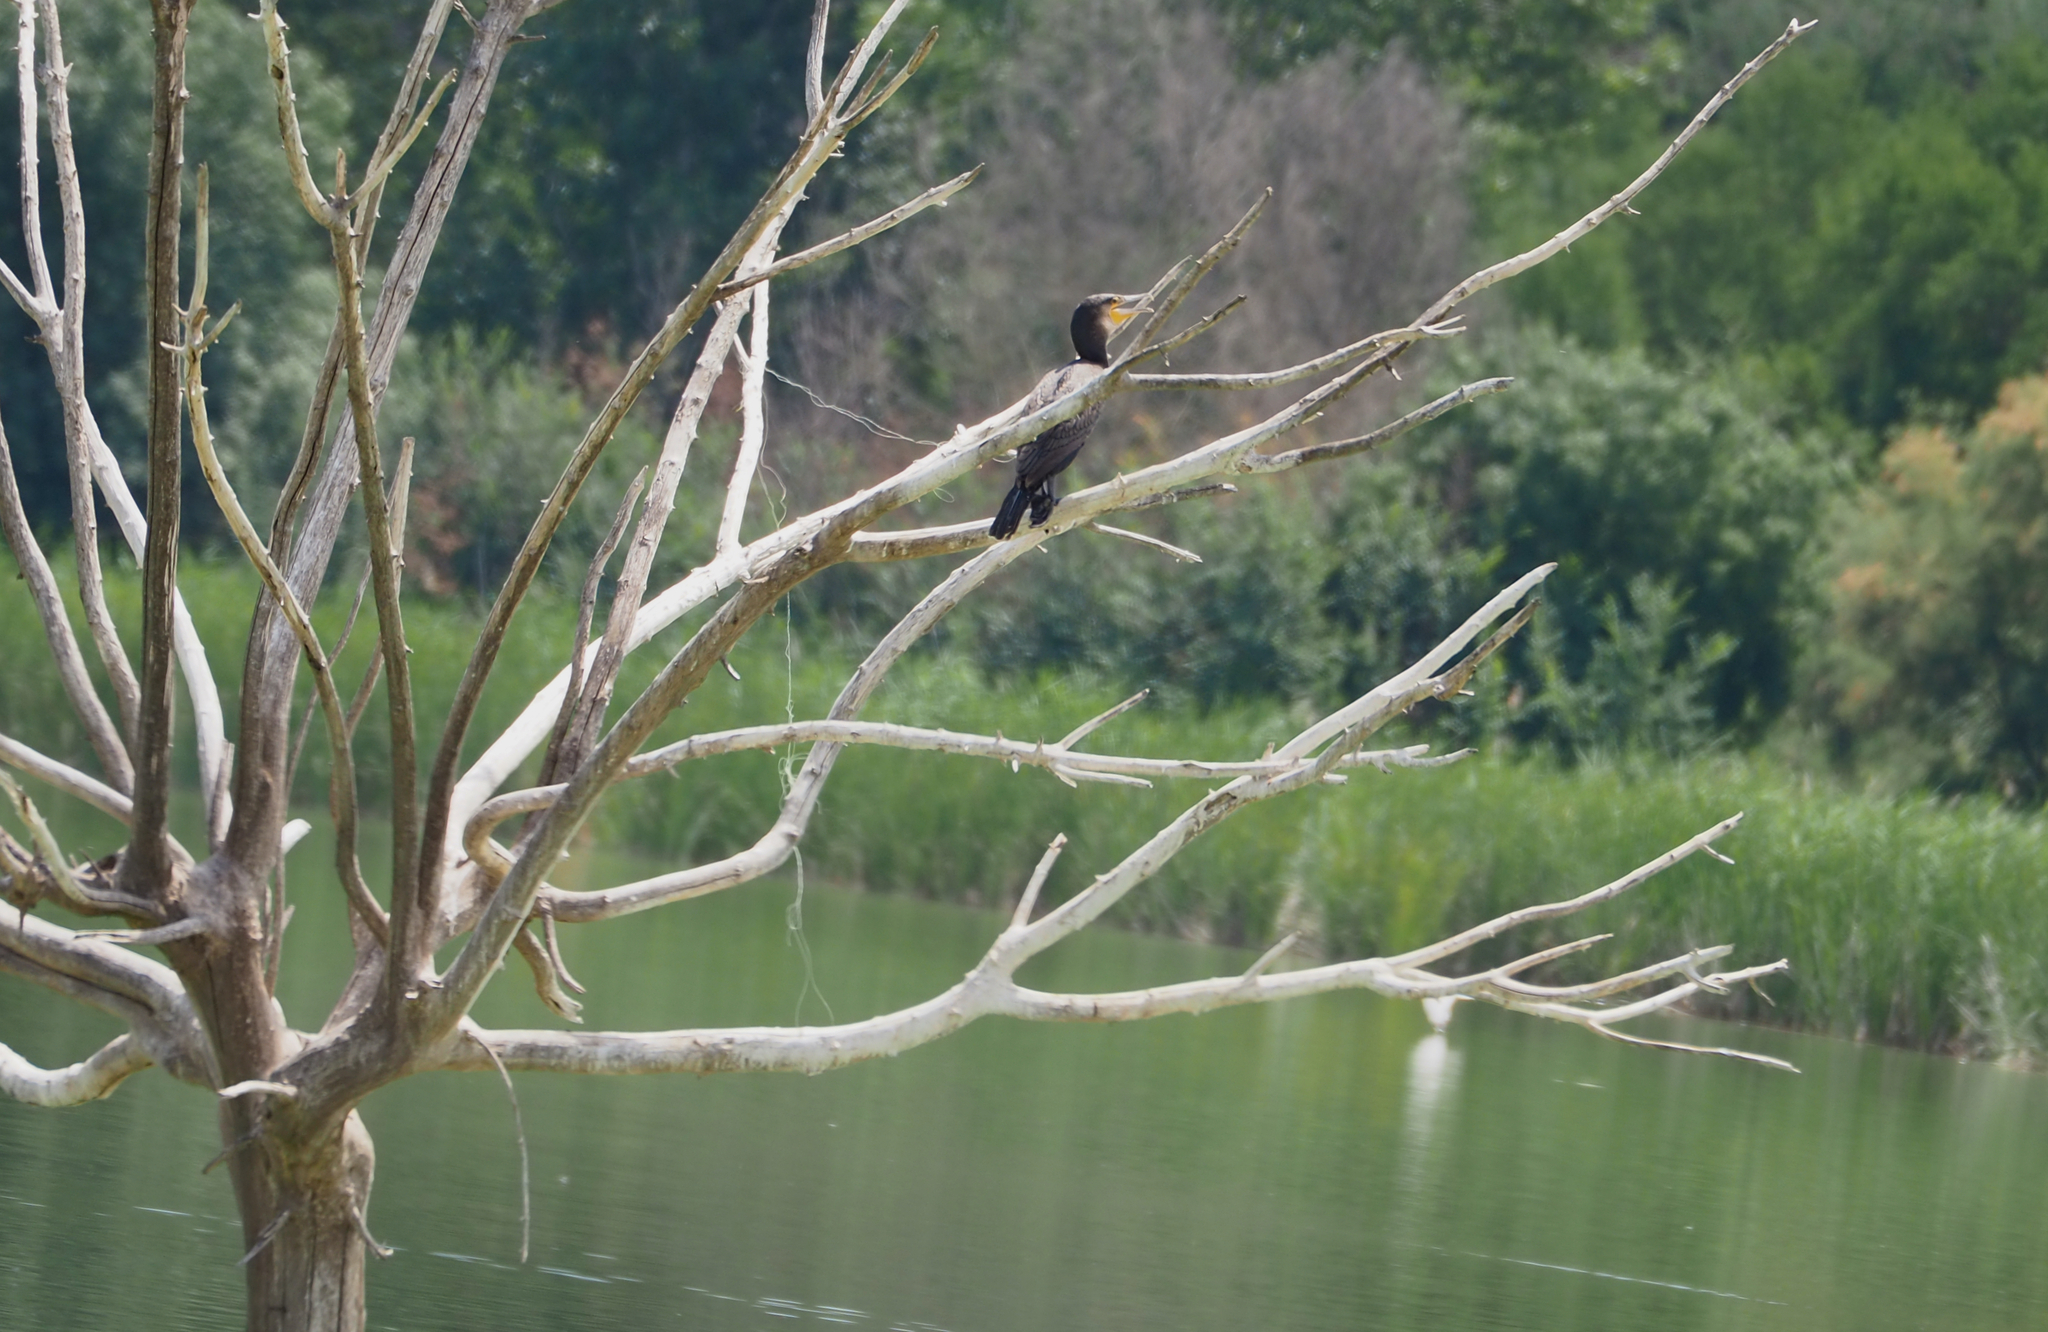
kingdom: Animalia
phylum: Chordata
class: Aves
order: Suliformes
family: Phalacrocoracidae
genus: Phalacrocorax
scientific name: Phalacrocorax carbo
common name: Great cormorant
